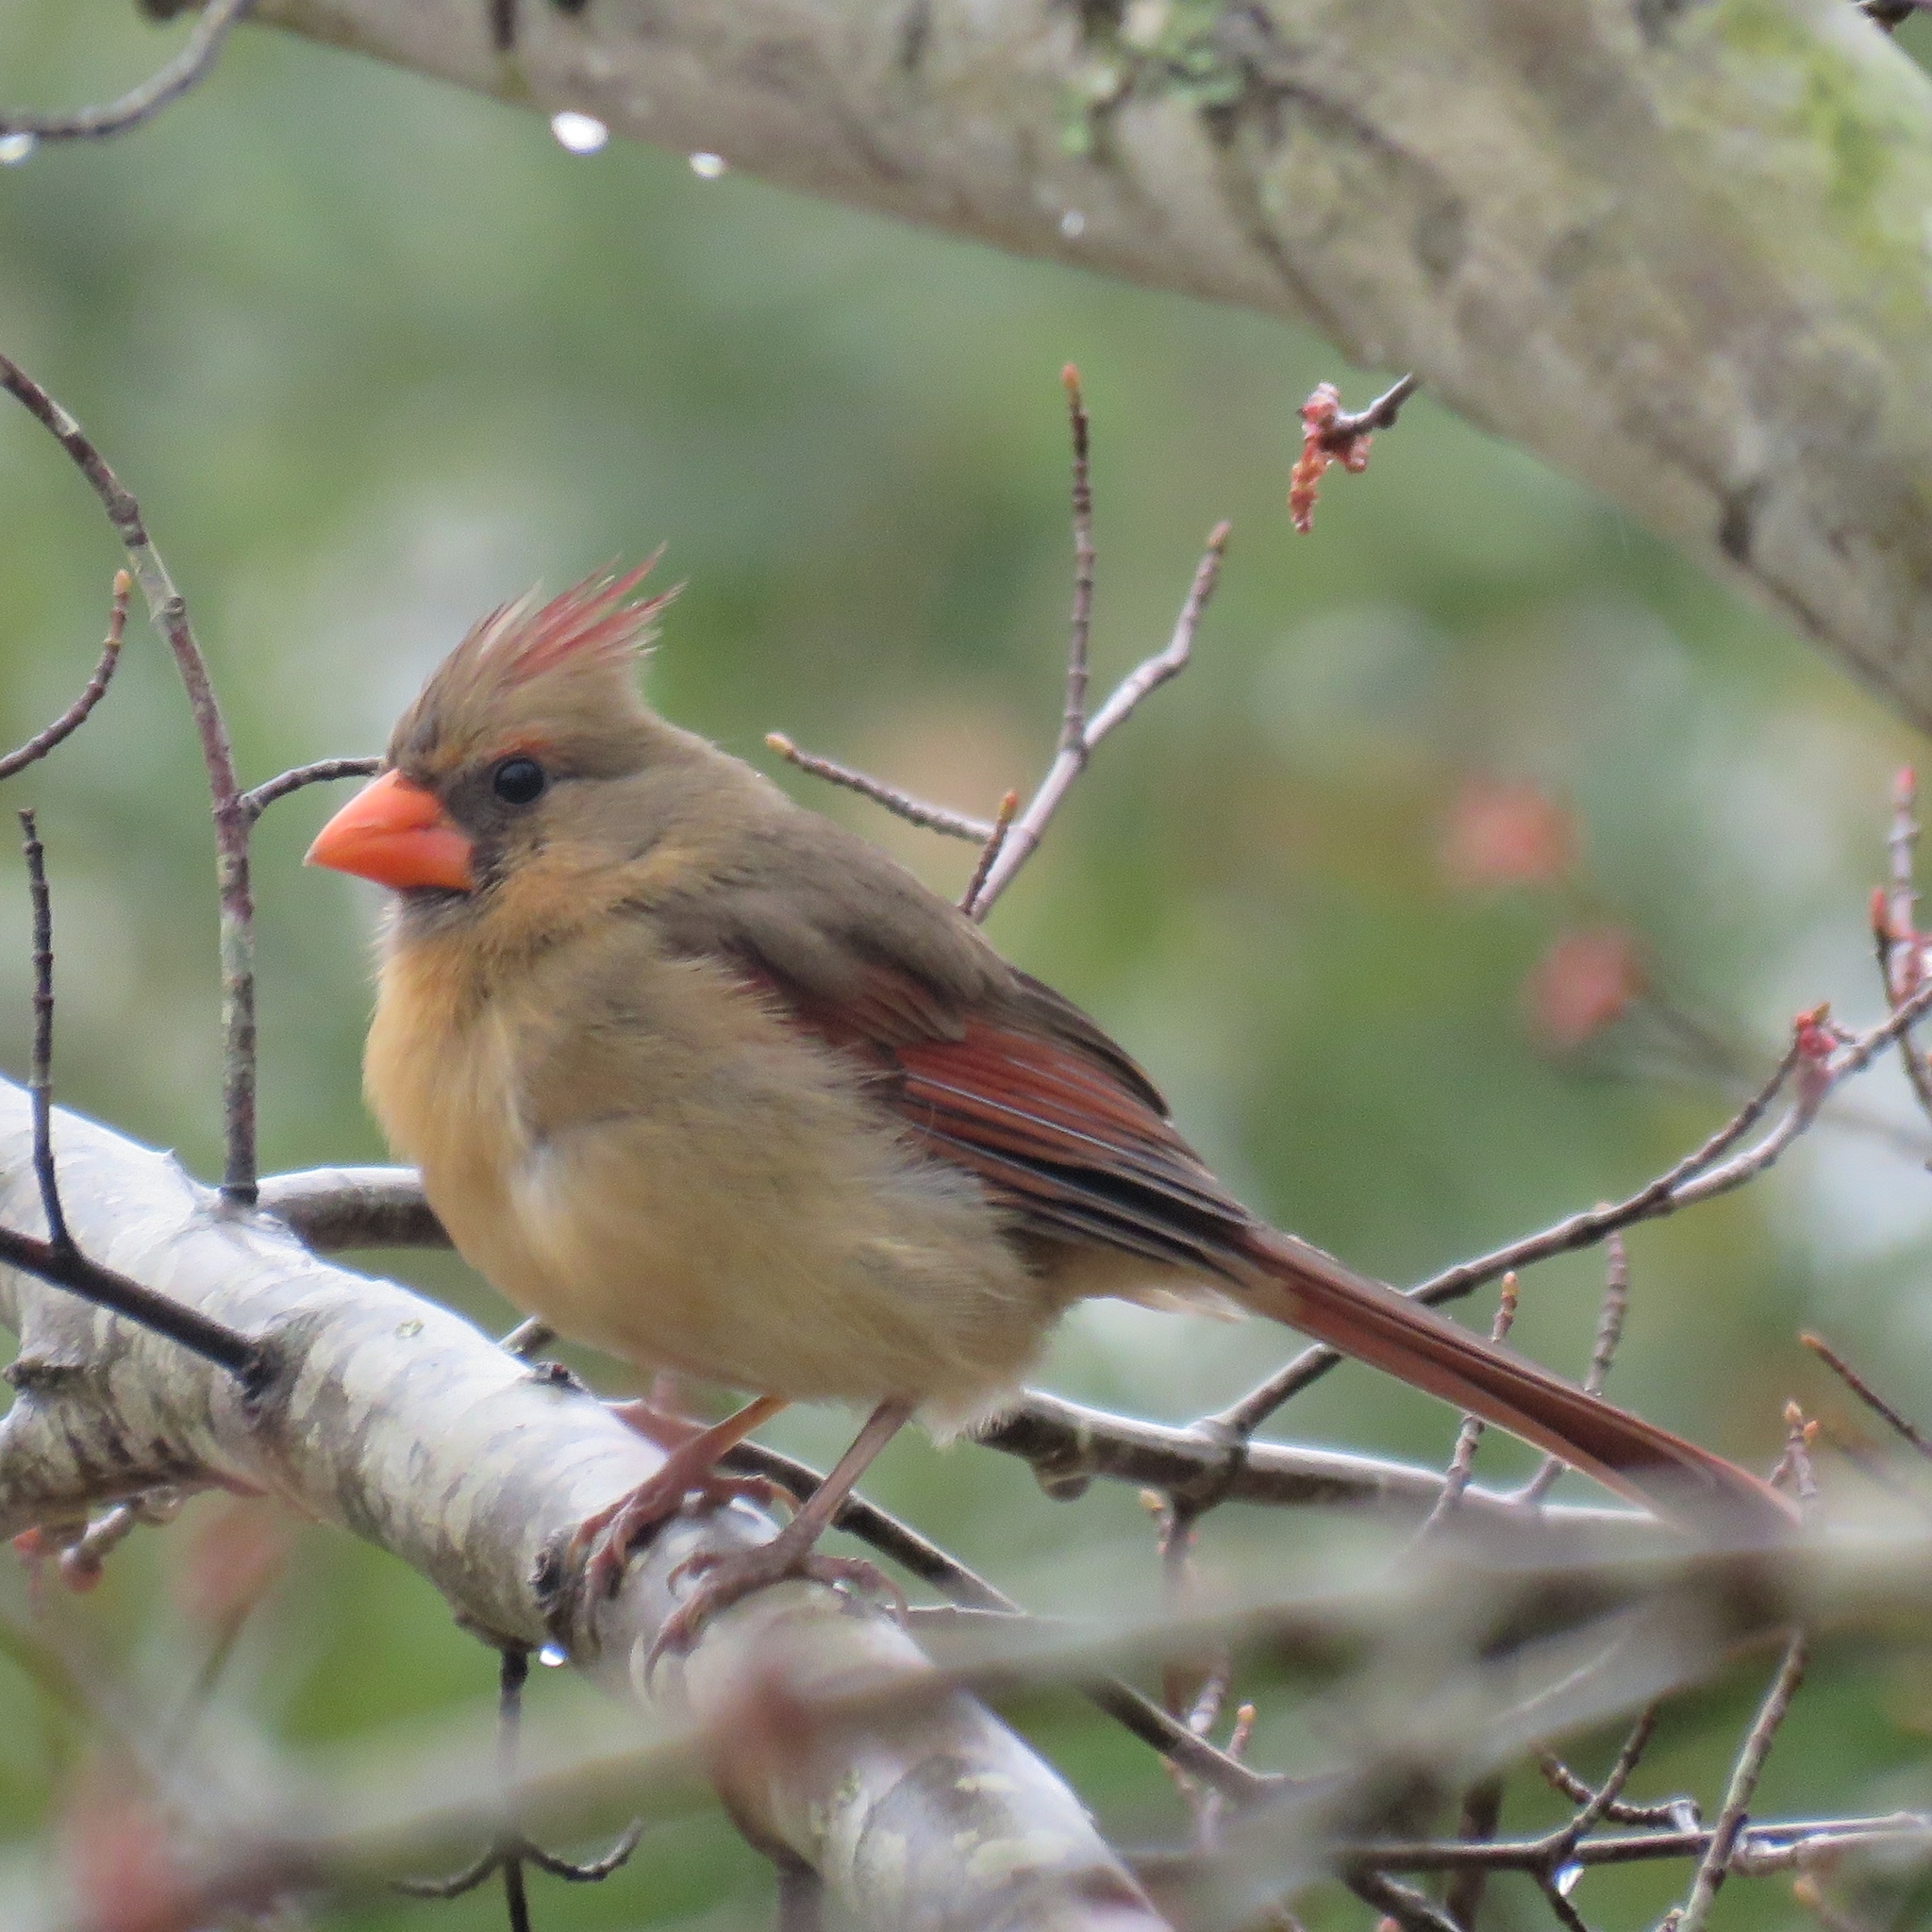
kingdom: Animalia
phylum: Chordata
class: Aves
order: Passeriformes
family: Cardinalidae
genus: Cardinalis
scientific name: Cardinalis cardinalis
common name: Northern cardinal
